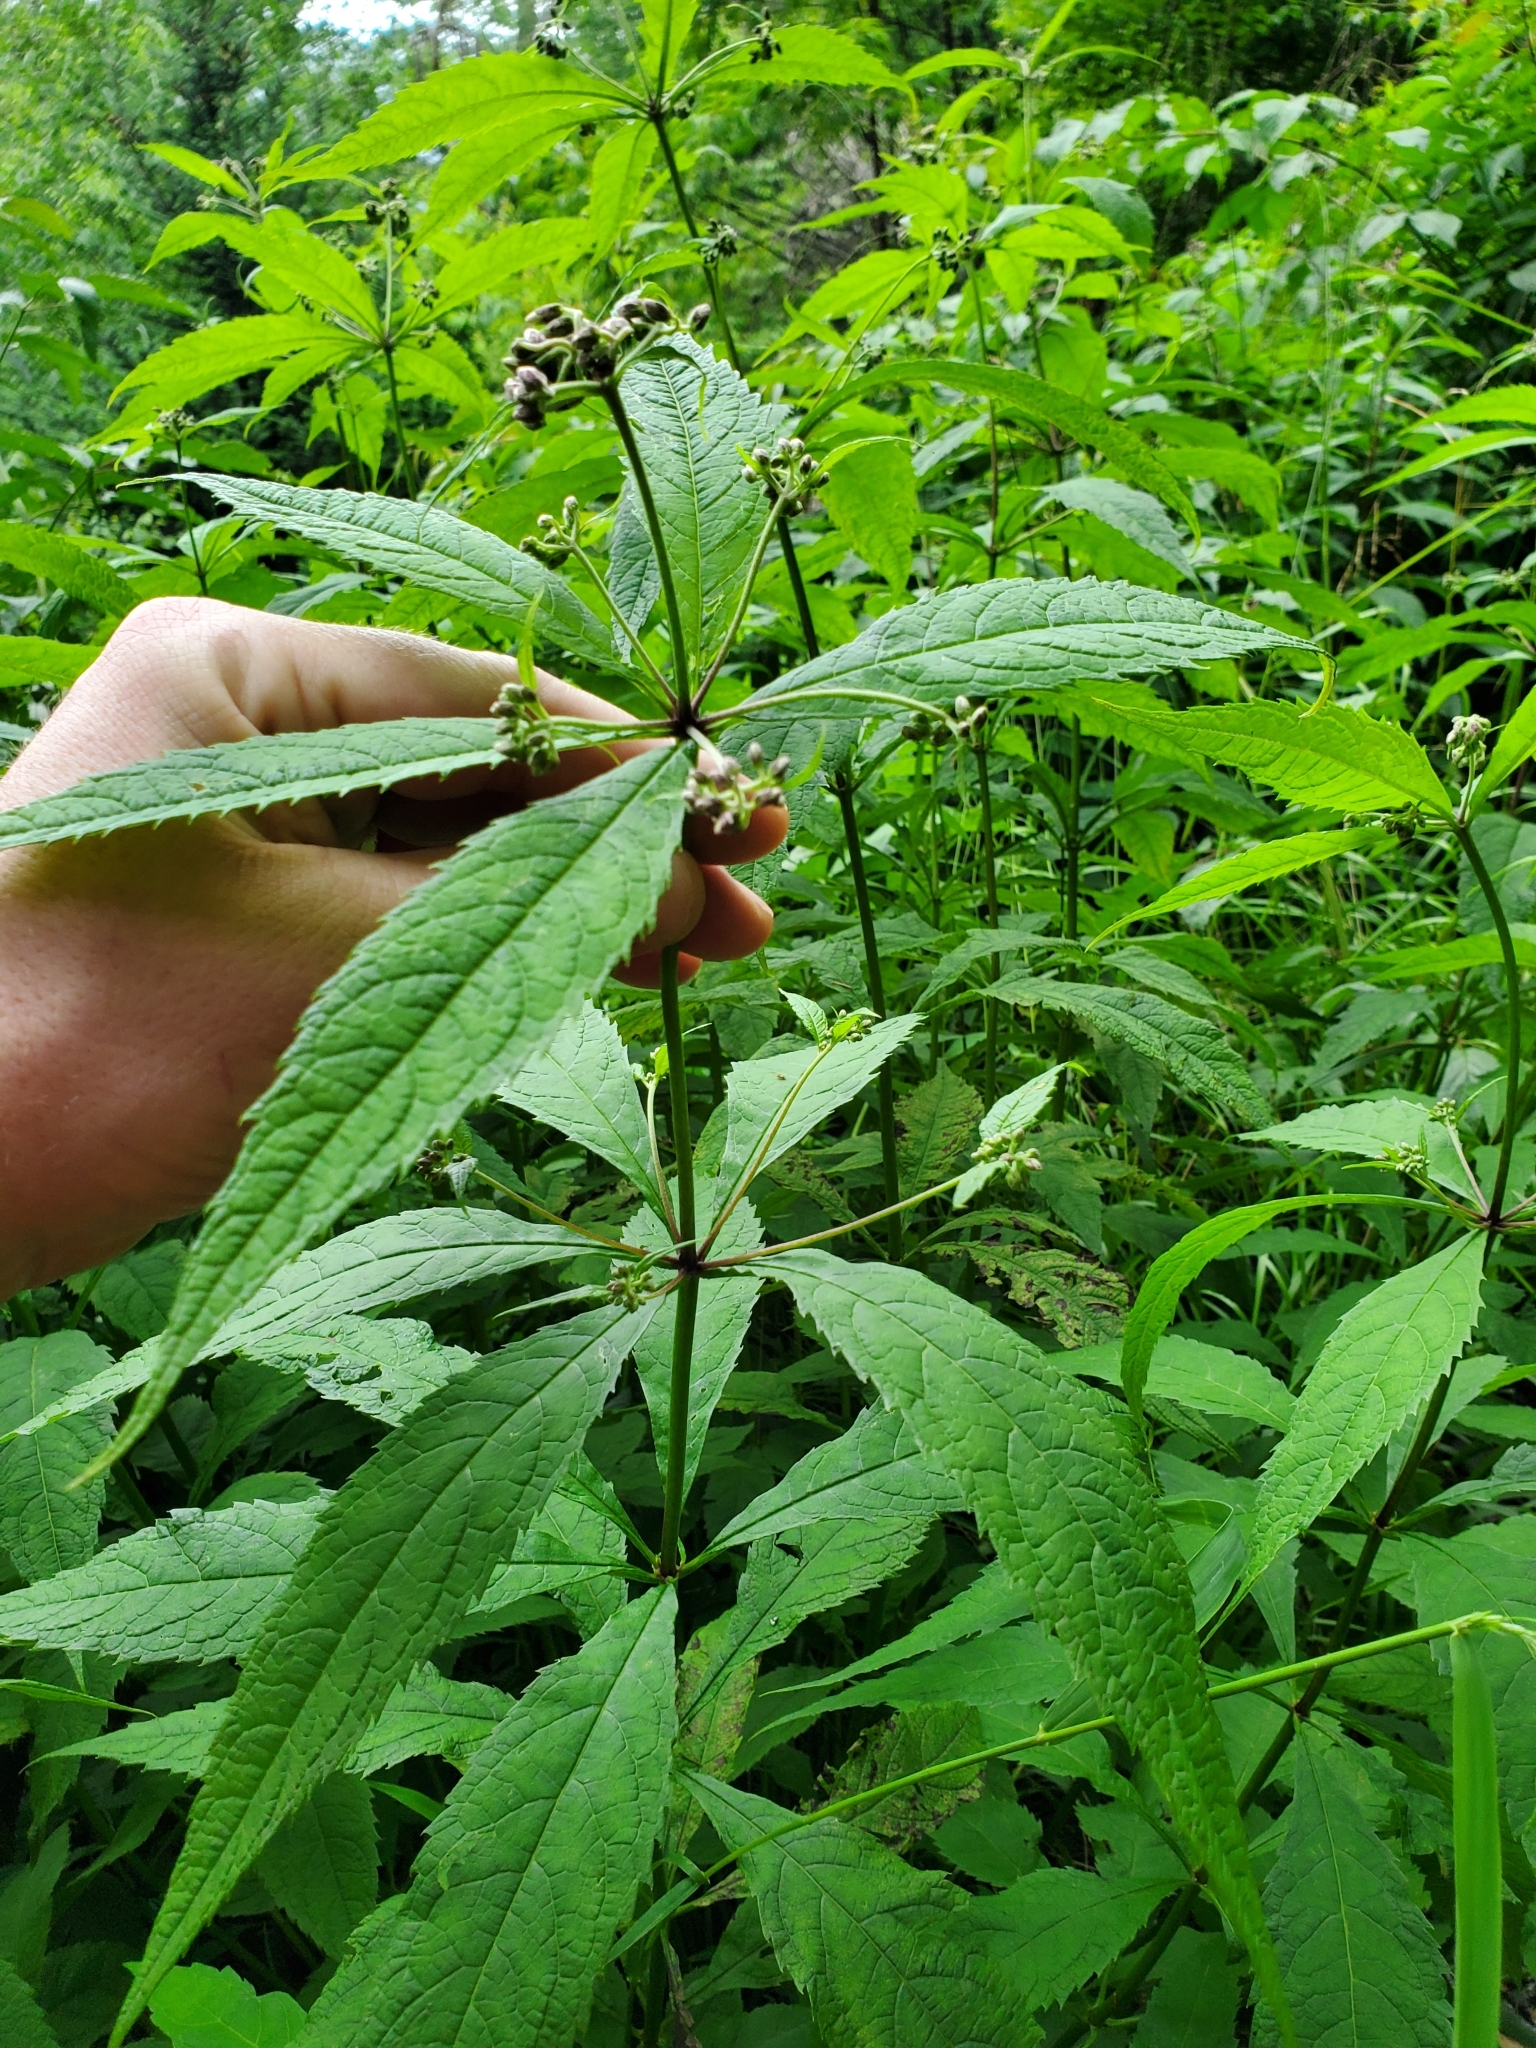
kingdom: Plantae
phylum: Tracheophyta
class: Magnoliopsida
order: Asterales
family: Asteraceae
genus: Eutrochium
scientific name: Eutrochium fistulosum
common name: Trumpetweed
